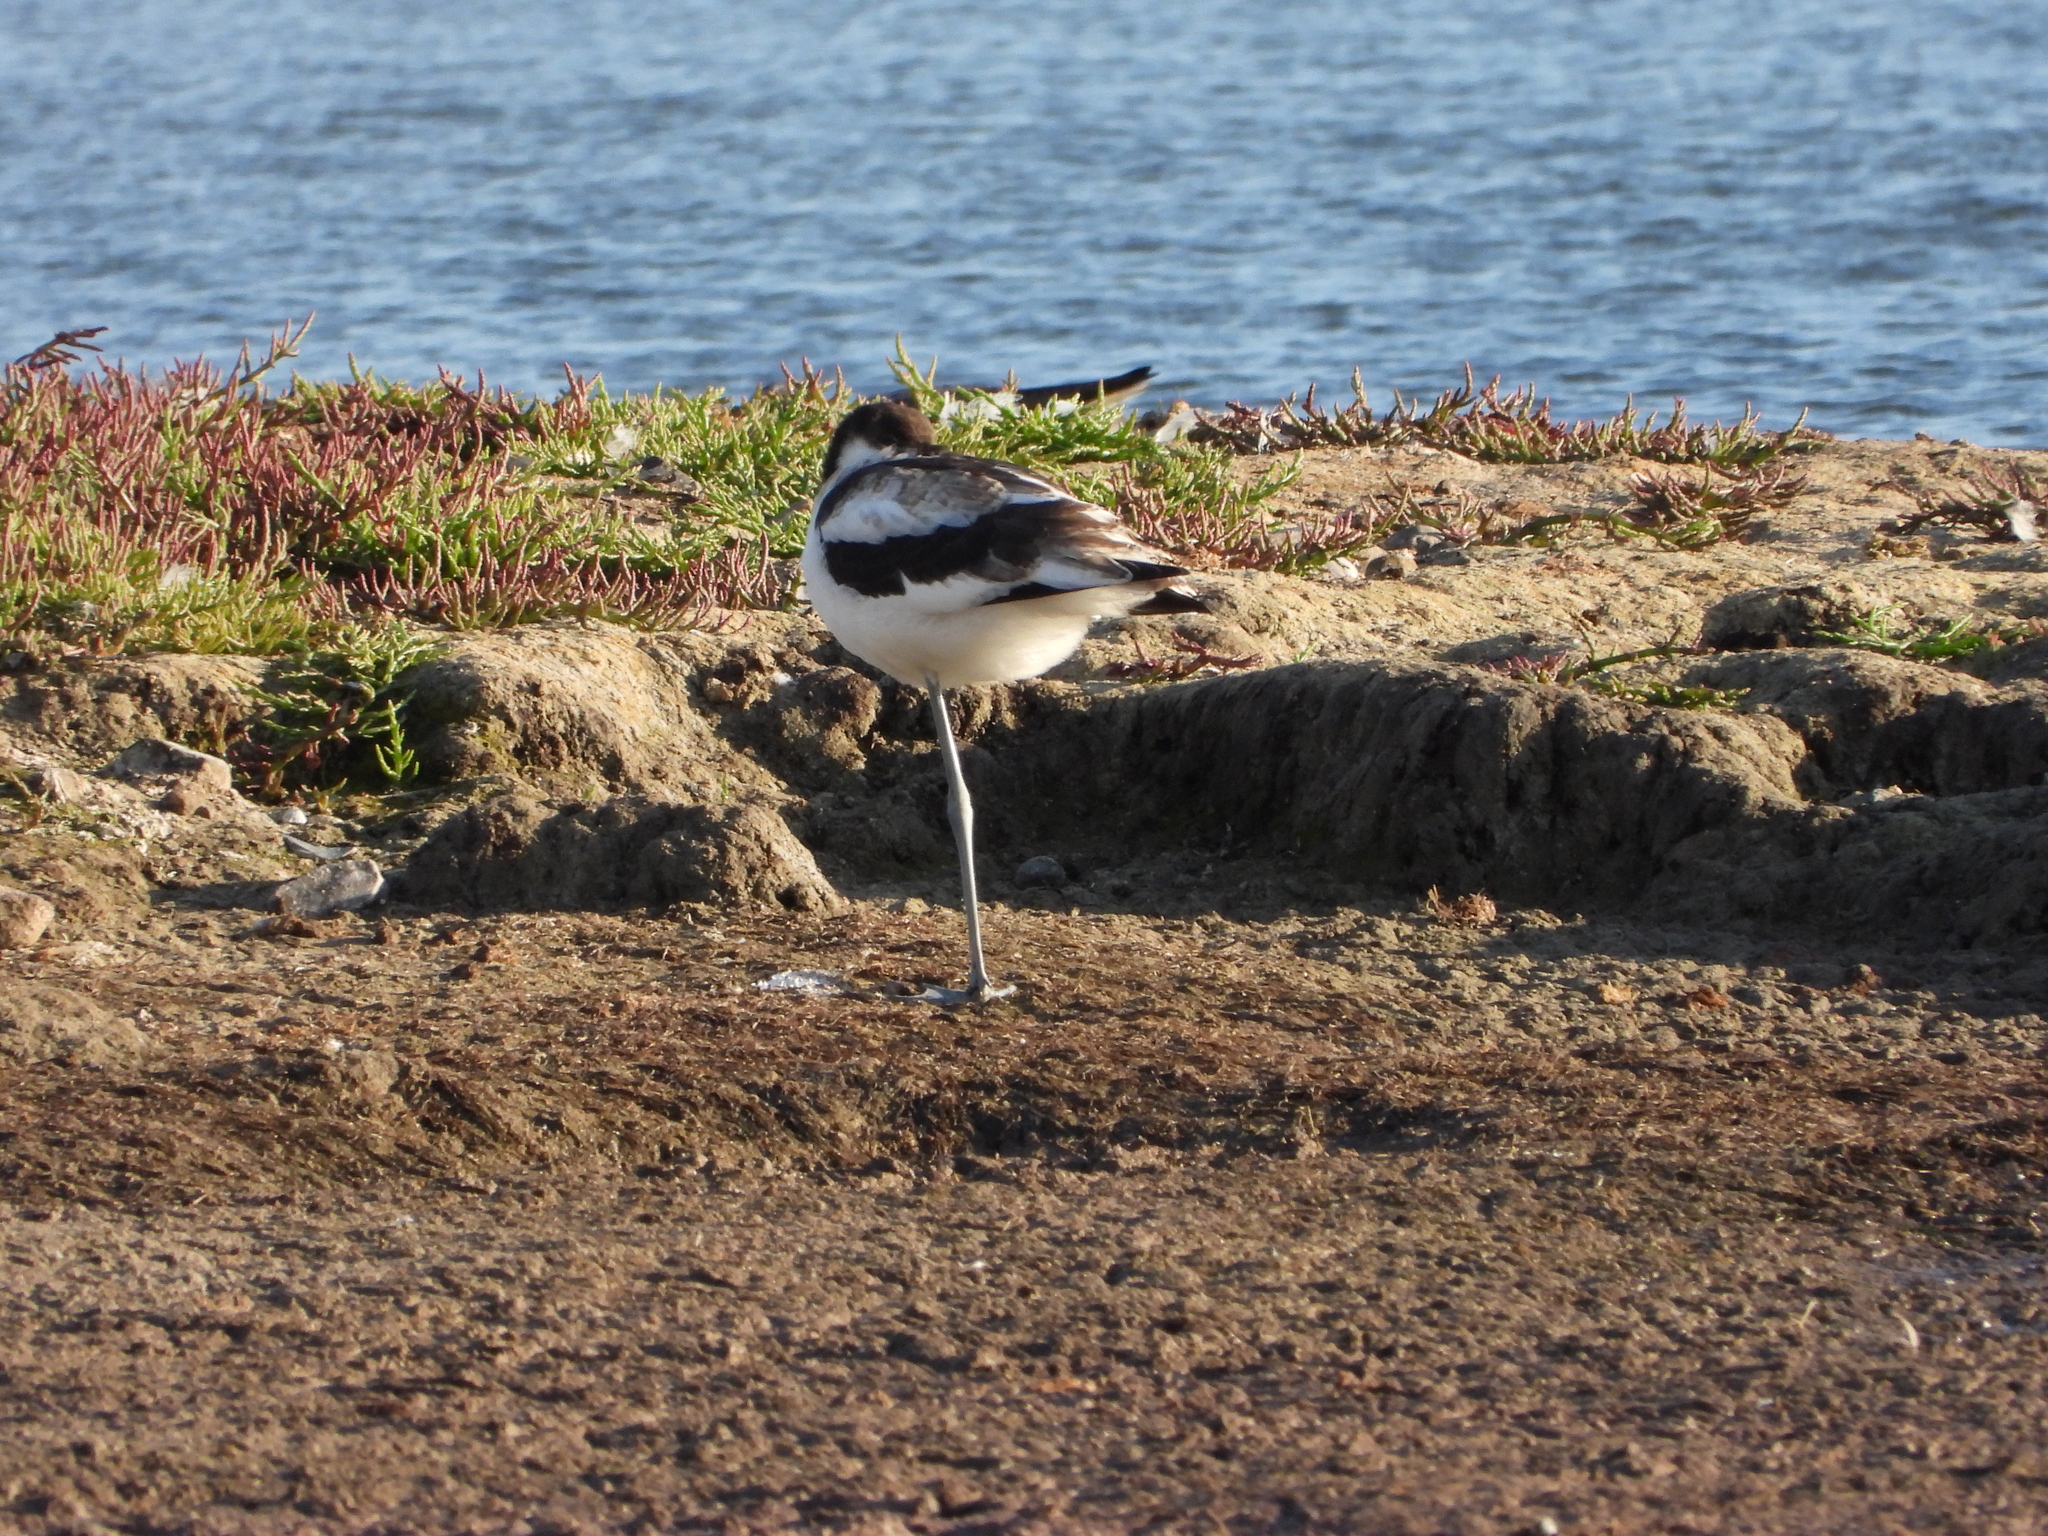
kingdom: Animalia
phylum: Chordata
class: Aves
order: Charadriiformes
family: Recurvirostridae
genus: Recurvirostra
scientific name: Recurvirostra avosetta
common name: Pied avocet
